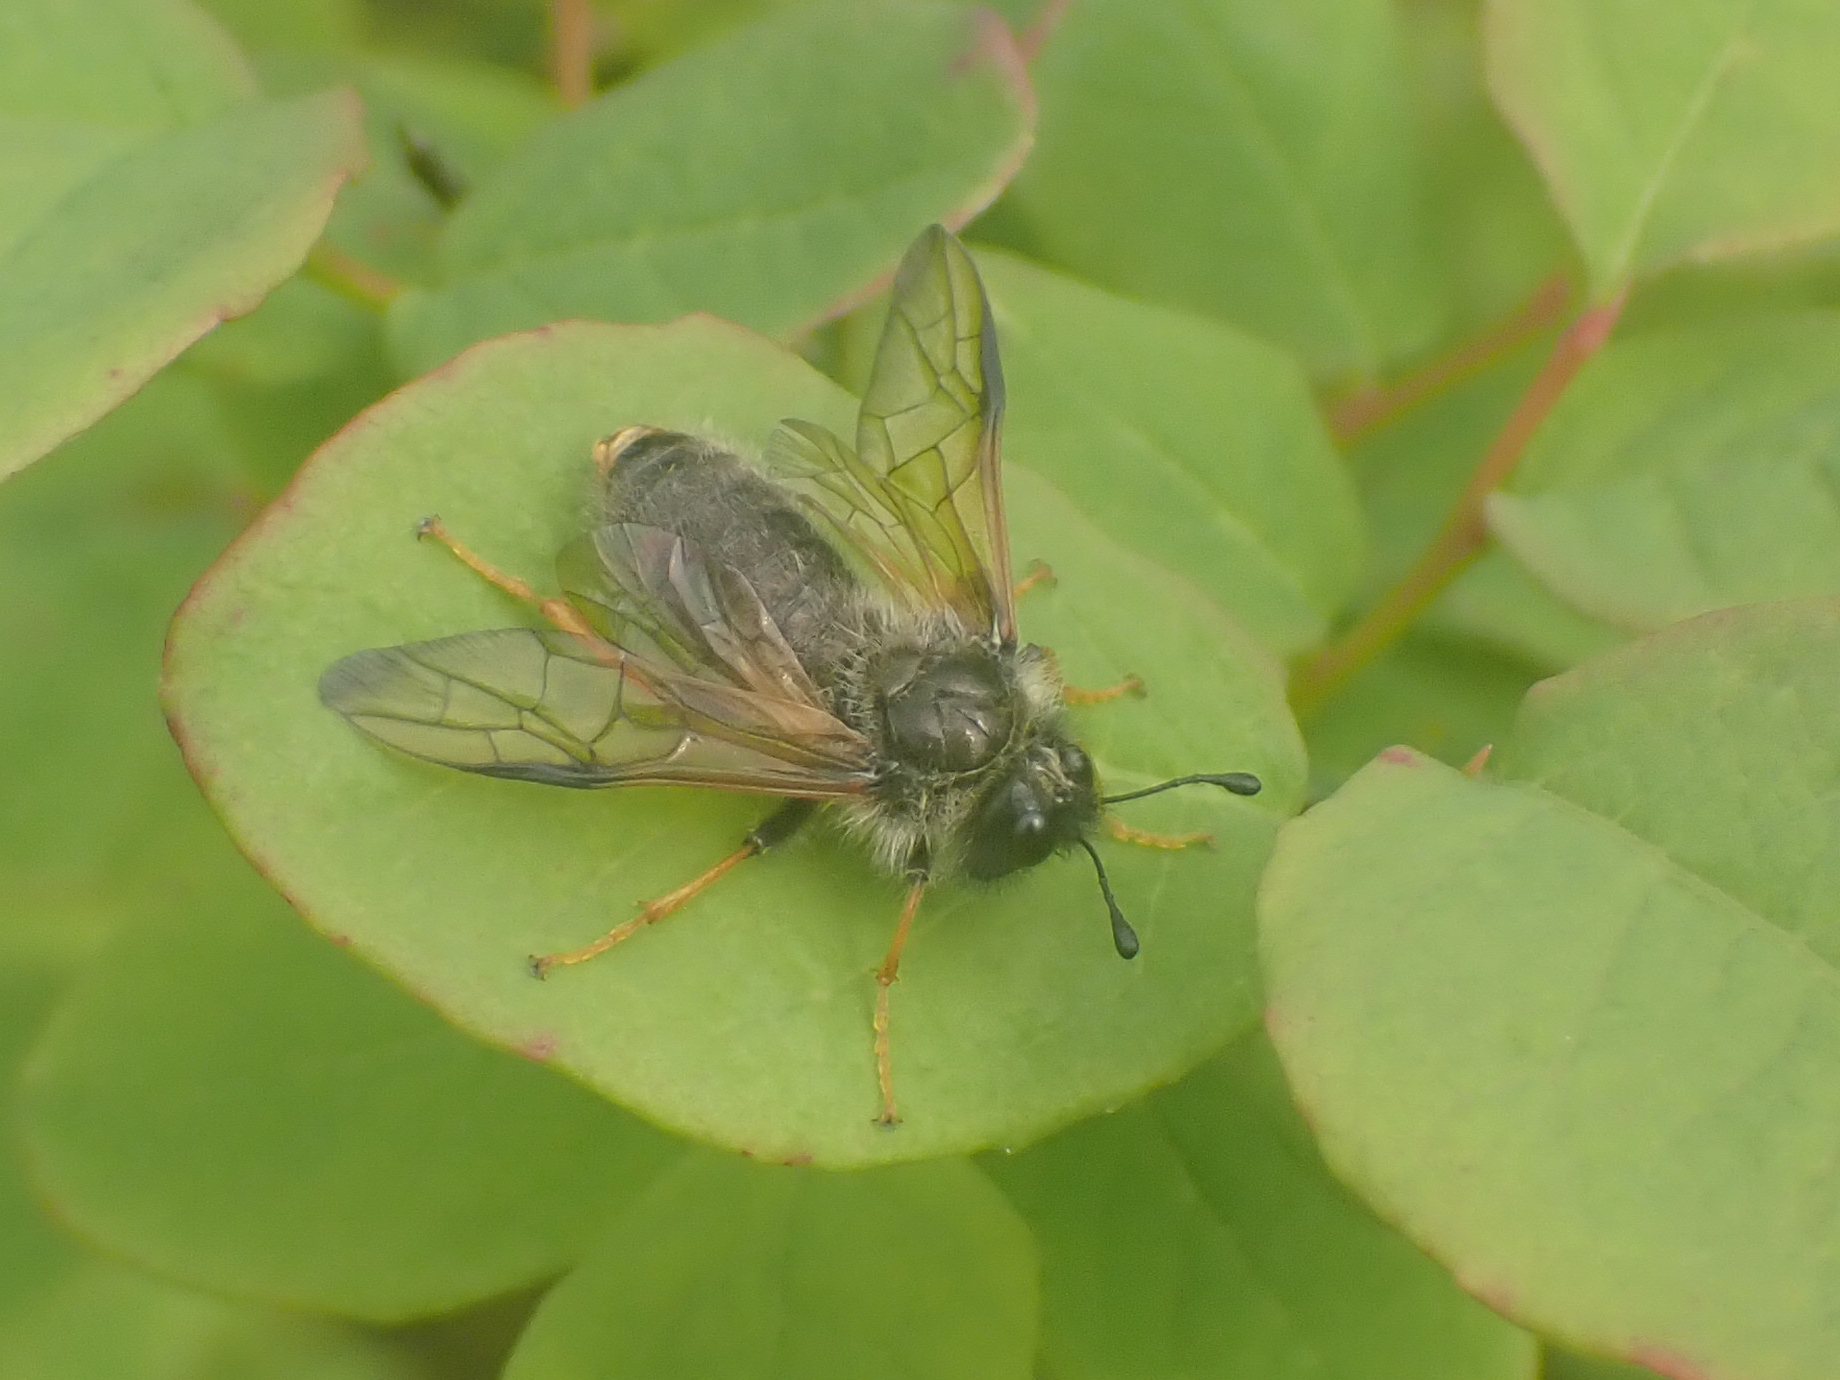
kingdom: Animalia
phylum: Arthropoda
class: Insecta
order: Hymenoptera
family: Cimbicidae
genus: Trichiosoma
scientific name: Trichiosoma triangulum
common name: Giant birch sawfly
